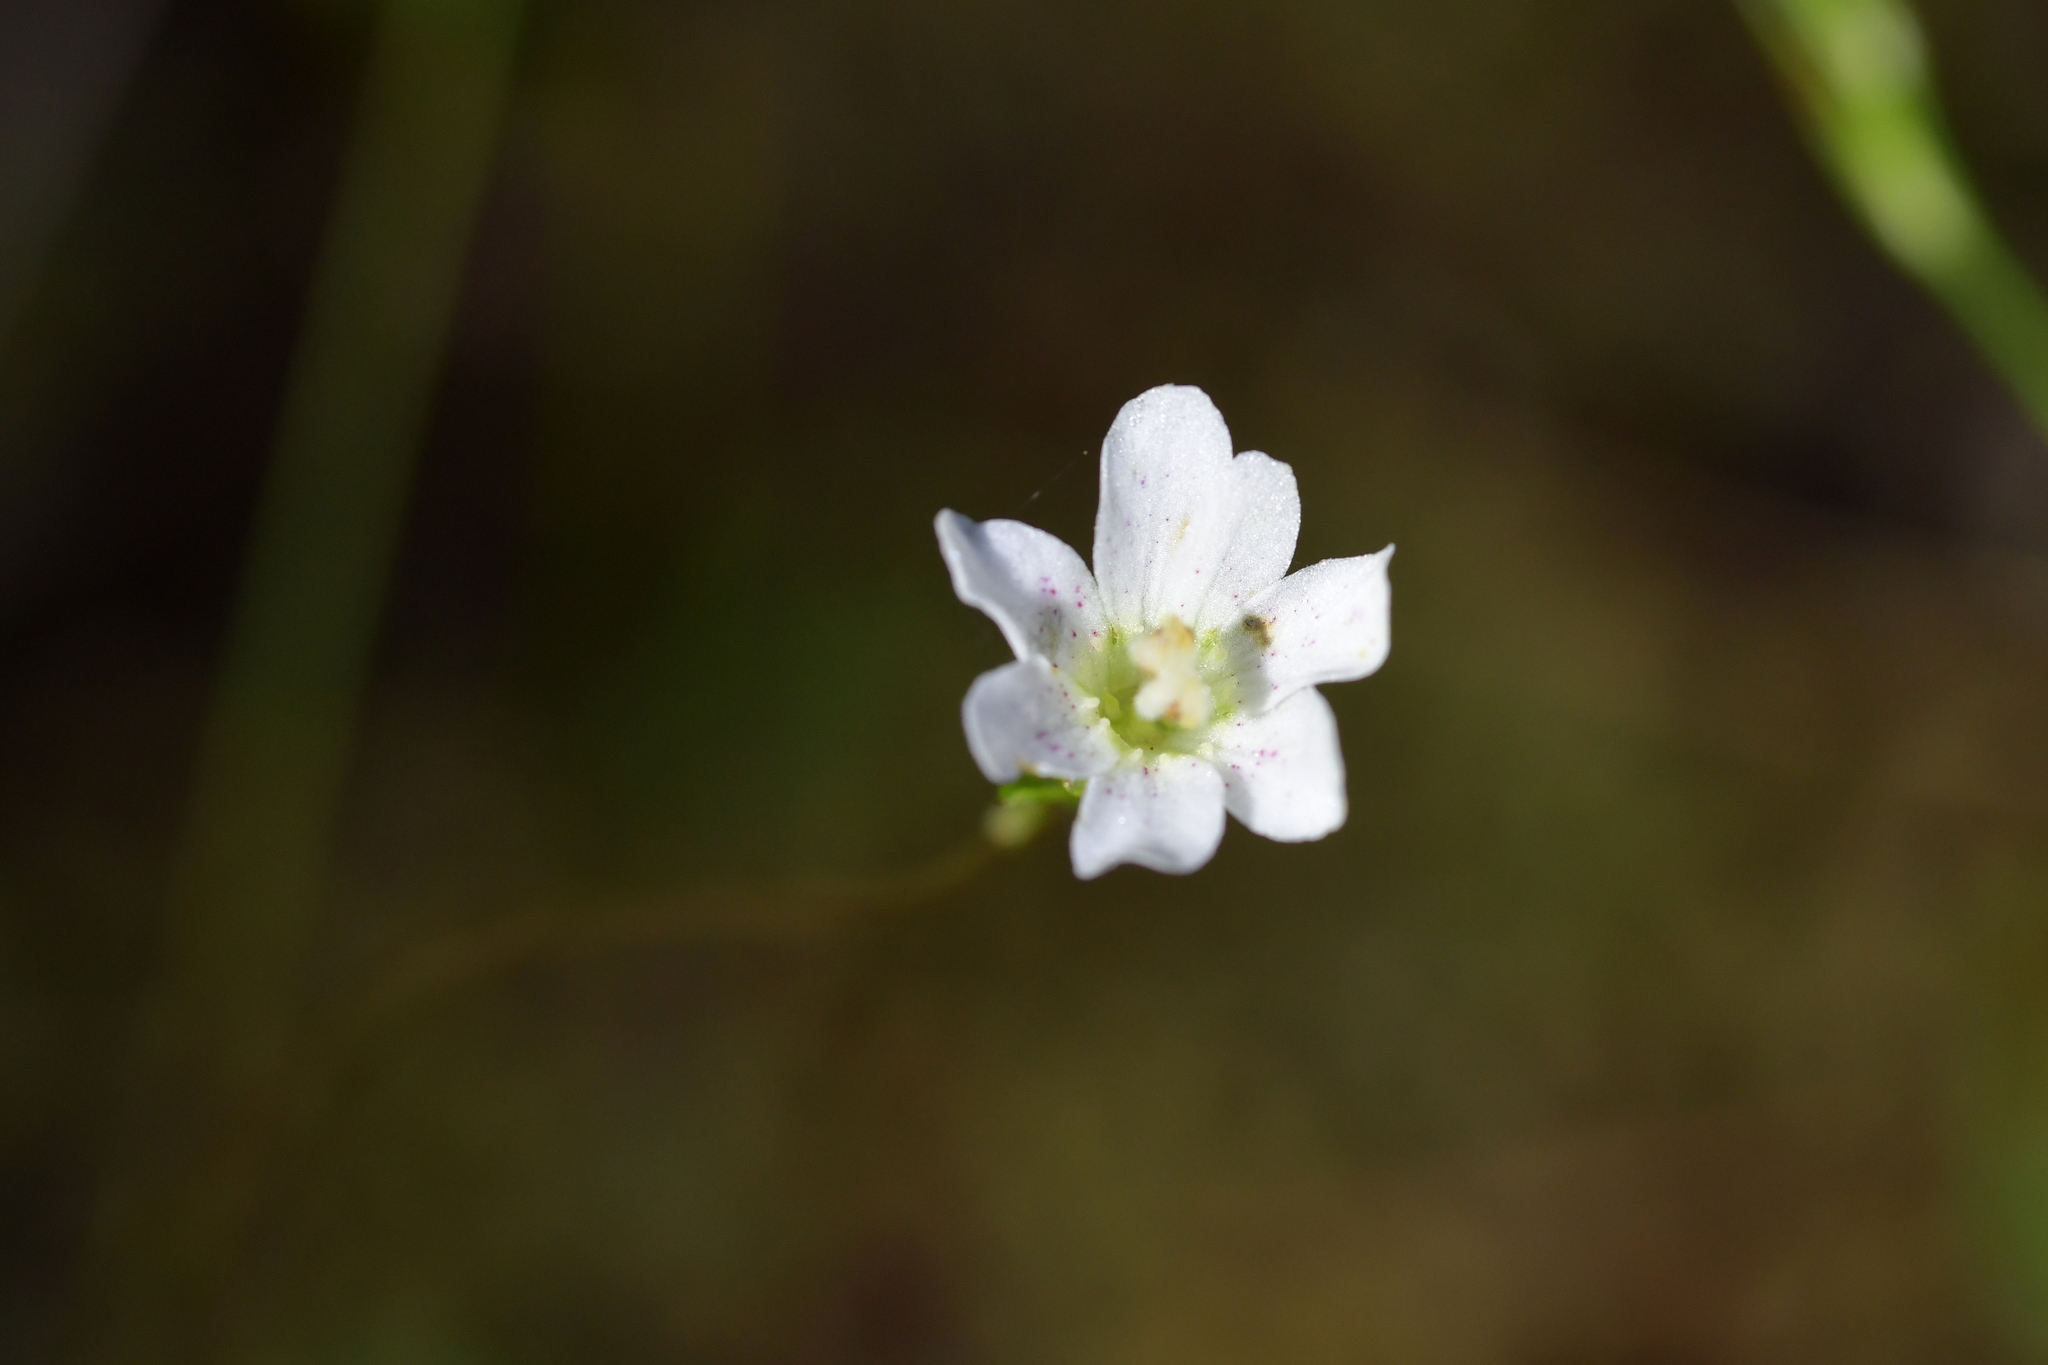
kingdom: Plantae
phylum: Tracheophyta
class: Magnoliopsida
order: Asterales
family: Stylidiaceae
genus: Forstera
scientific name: Forstera tenella
